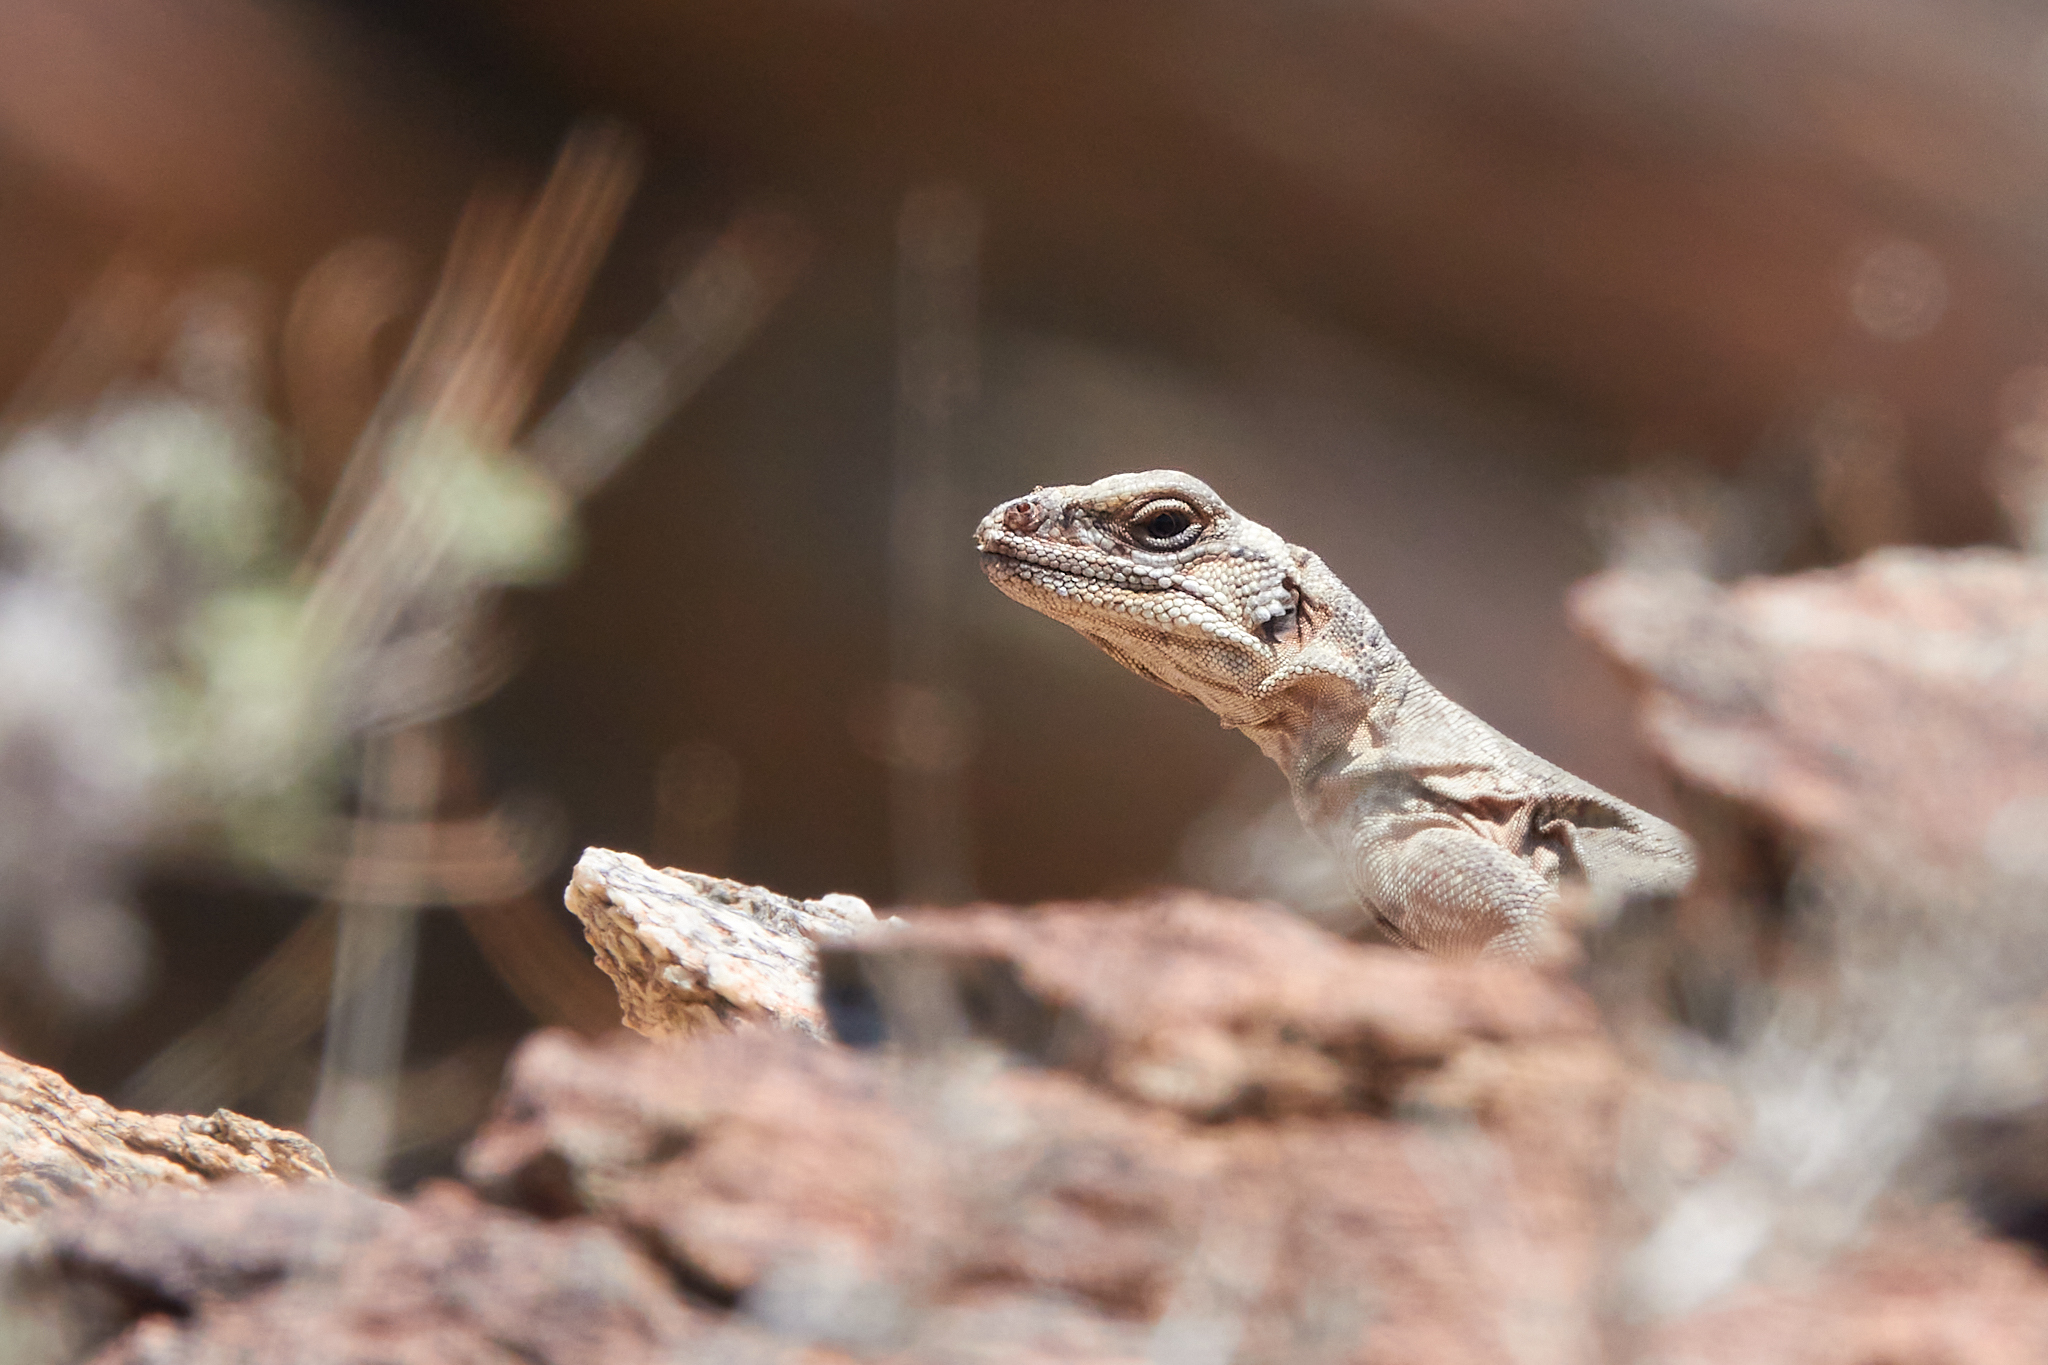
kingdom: Animalia
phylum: Chordata
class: Squamata
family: Iguanidae
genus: Sauromalus
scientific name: Sauromalus ater
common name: Northern chuckwalla
